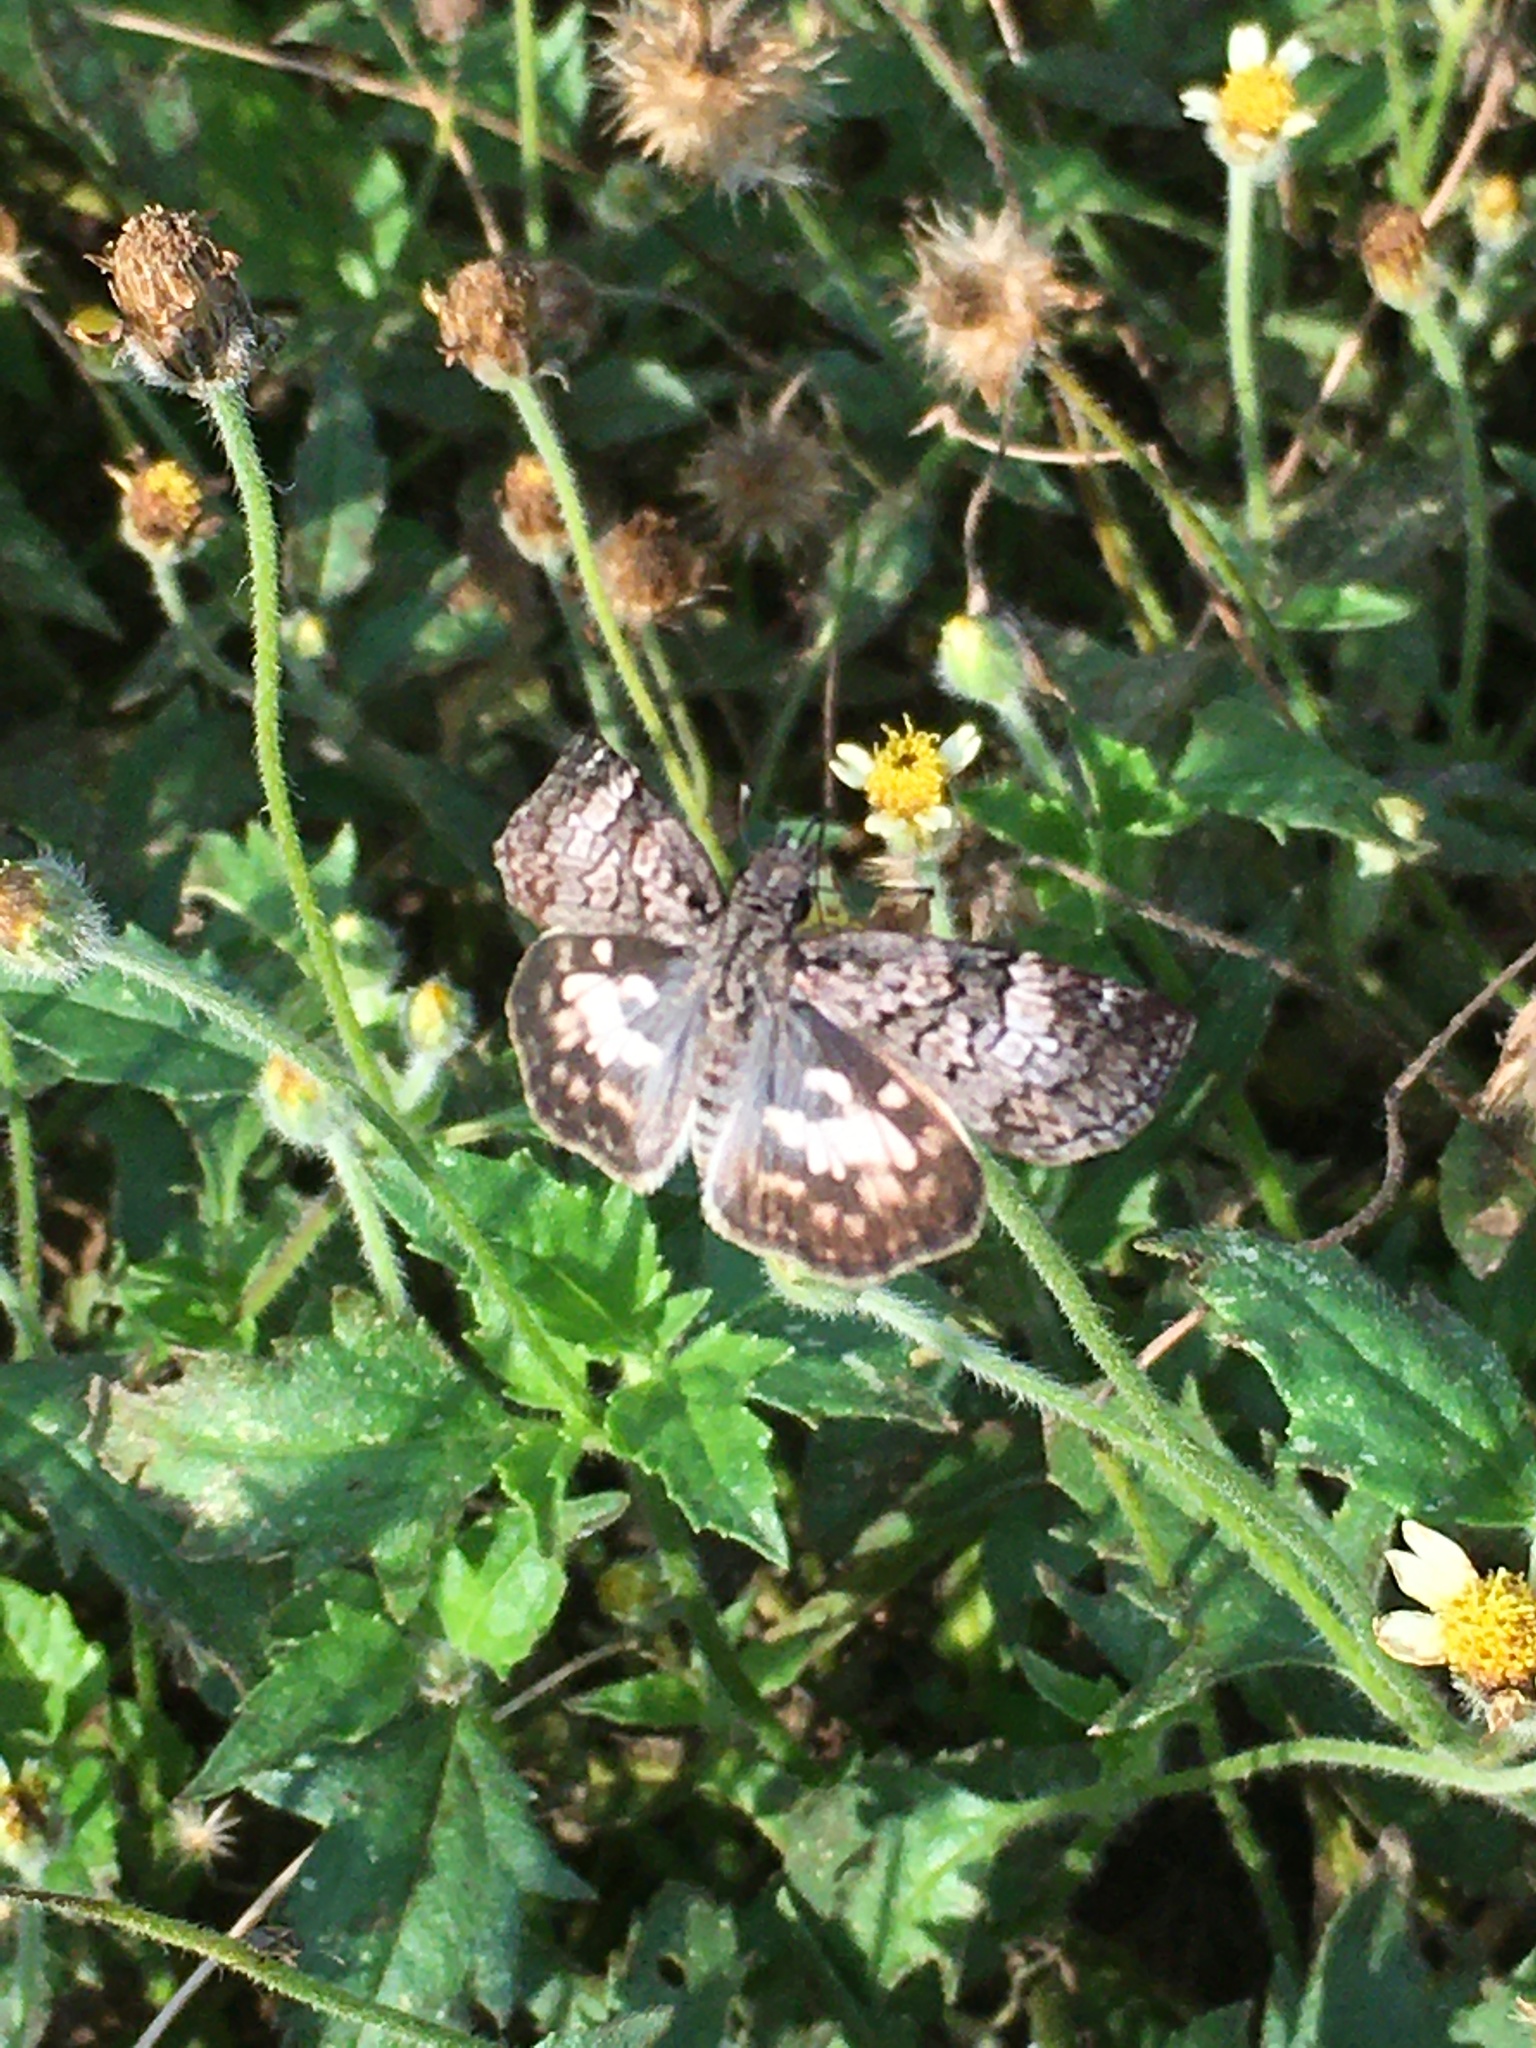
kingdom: Animalia
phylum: Arthropoda
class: Insecta
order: Lepidoptera
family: Hesperiidae
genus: Chiomara
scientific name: Chiomara asychis
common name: White-patterned skipper
